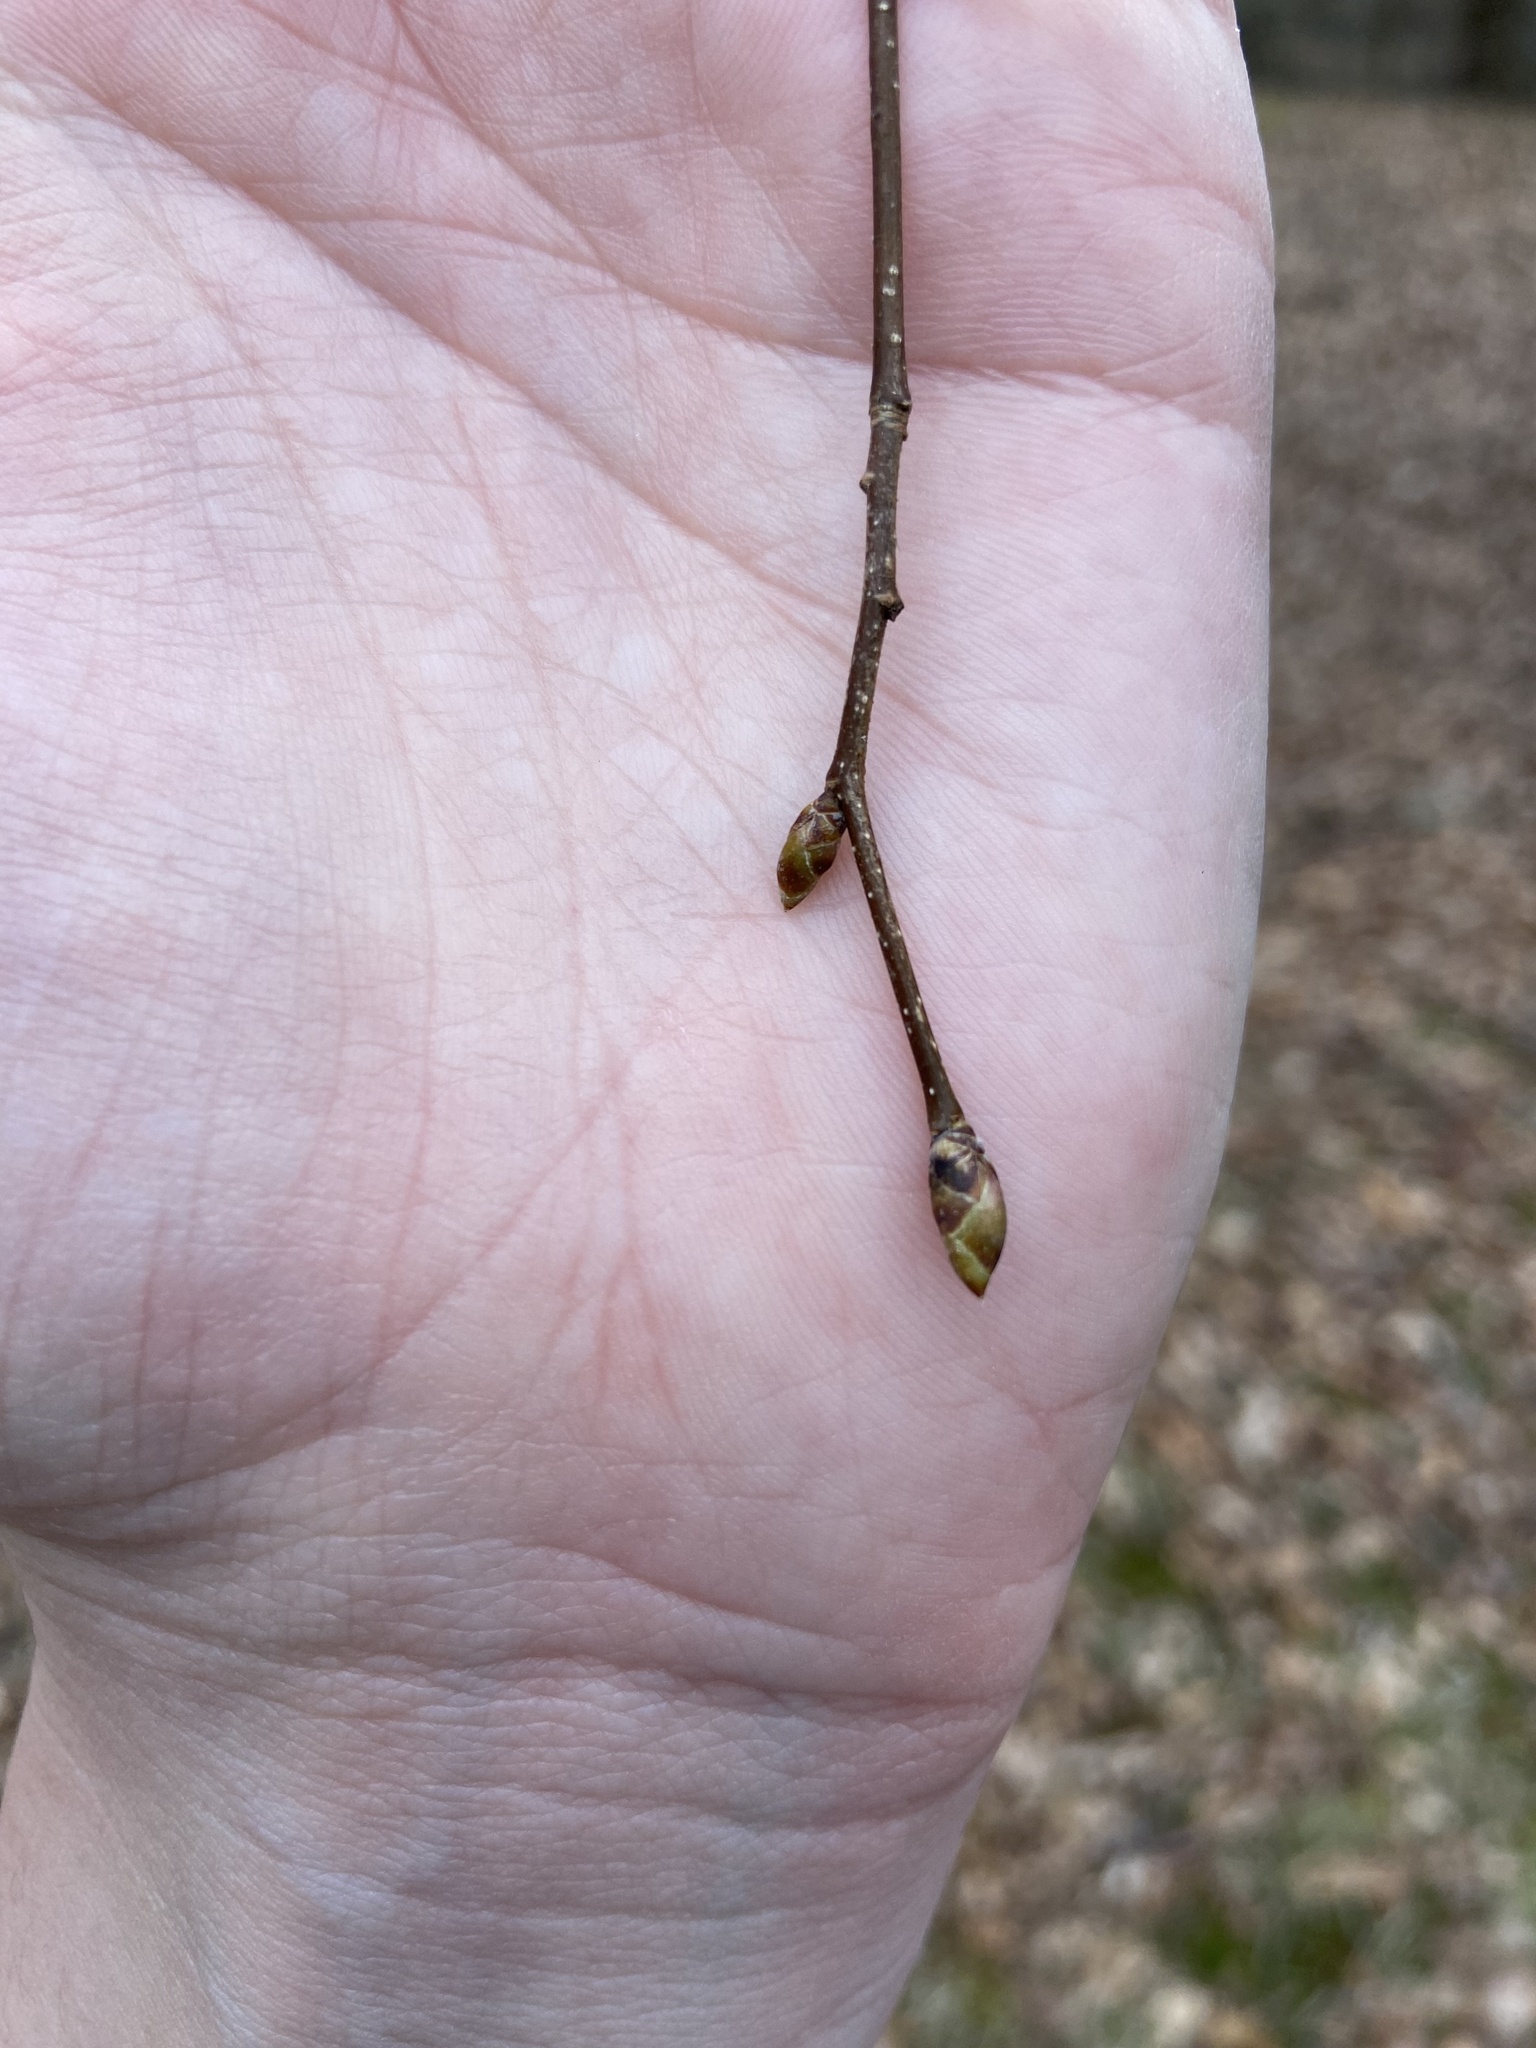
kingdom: Plantae
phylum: Tracheophyta
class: Magnoliopsida
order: Fagales
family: Betulaceae
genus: Ostrya
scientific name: Ostrya virginiana
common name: Ironwood
